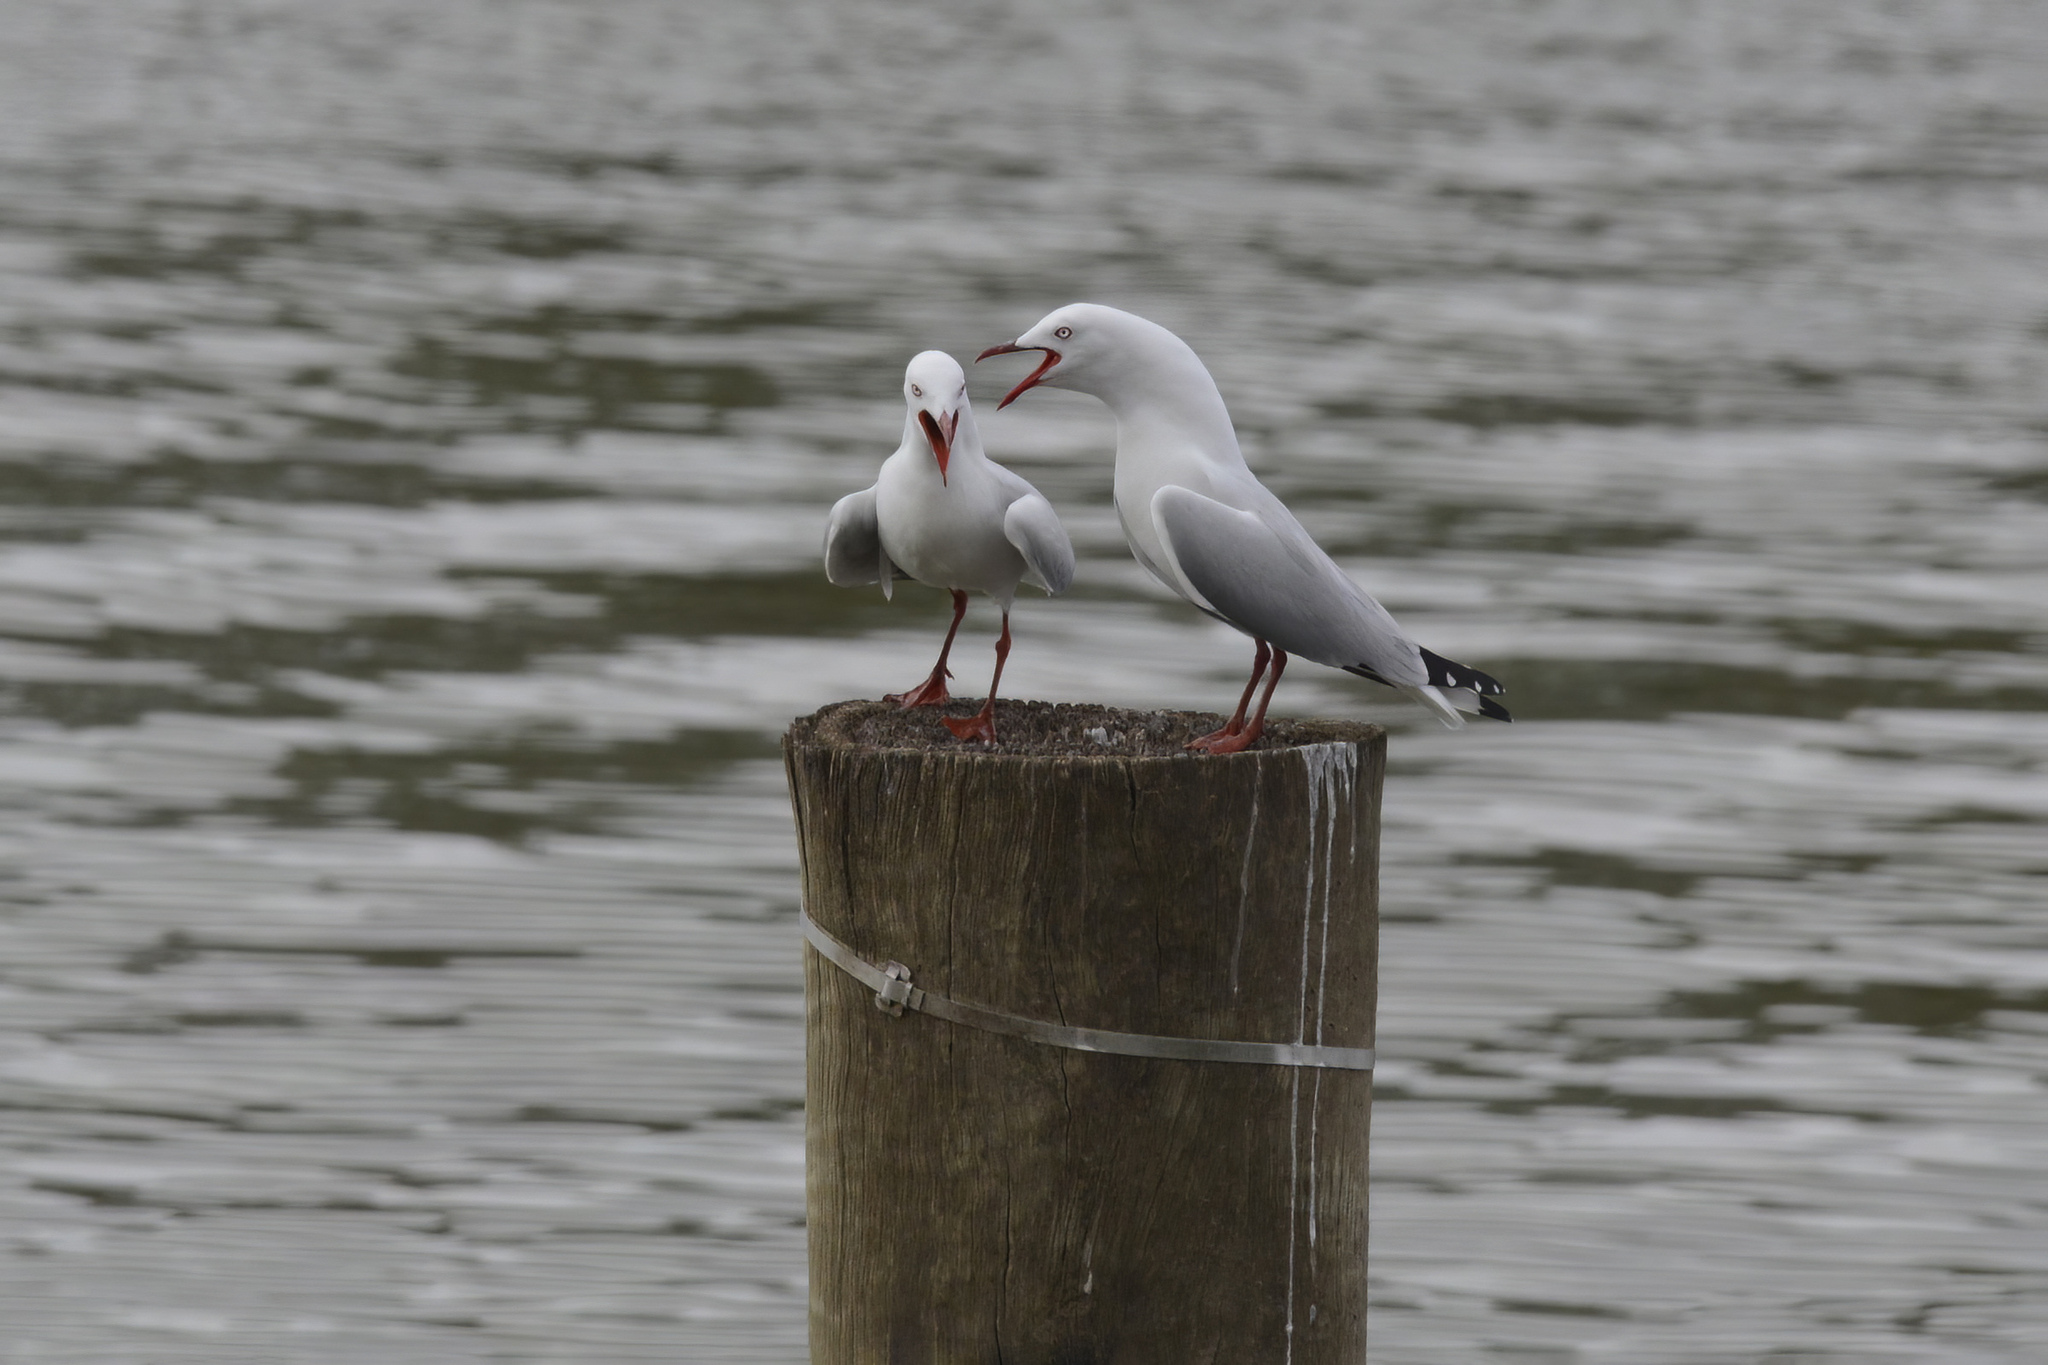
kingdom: Animalia
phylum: Chordata
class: Aves
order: Charadriiformes
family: Laridae
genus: Chroicocephalus
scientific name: Chroicocephalus novaehollandiae
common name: Silver gull
